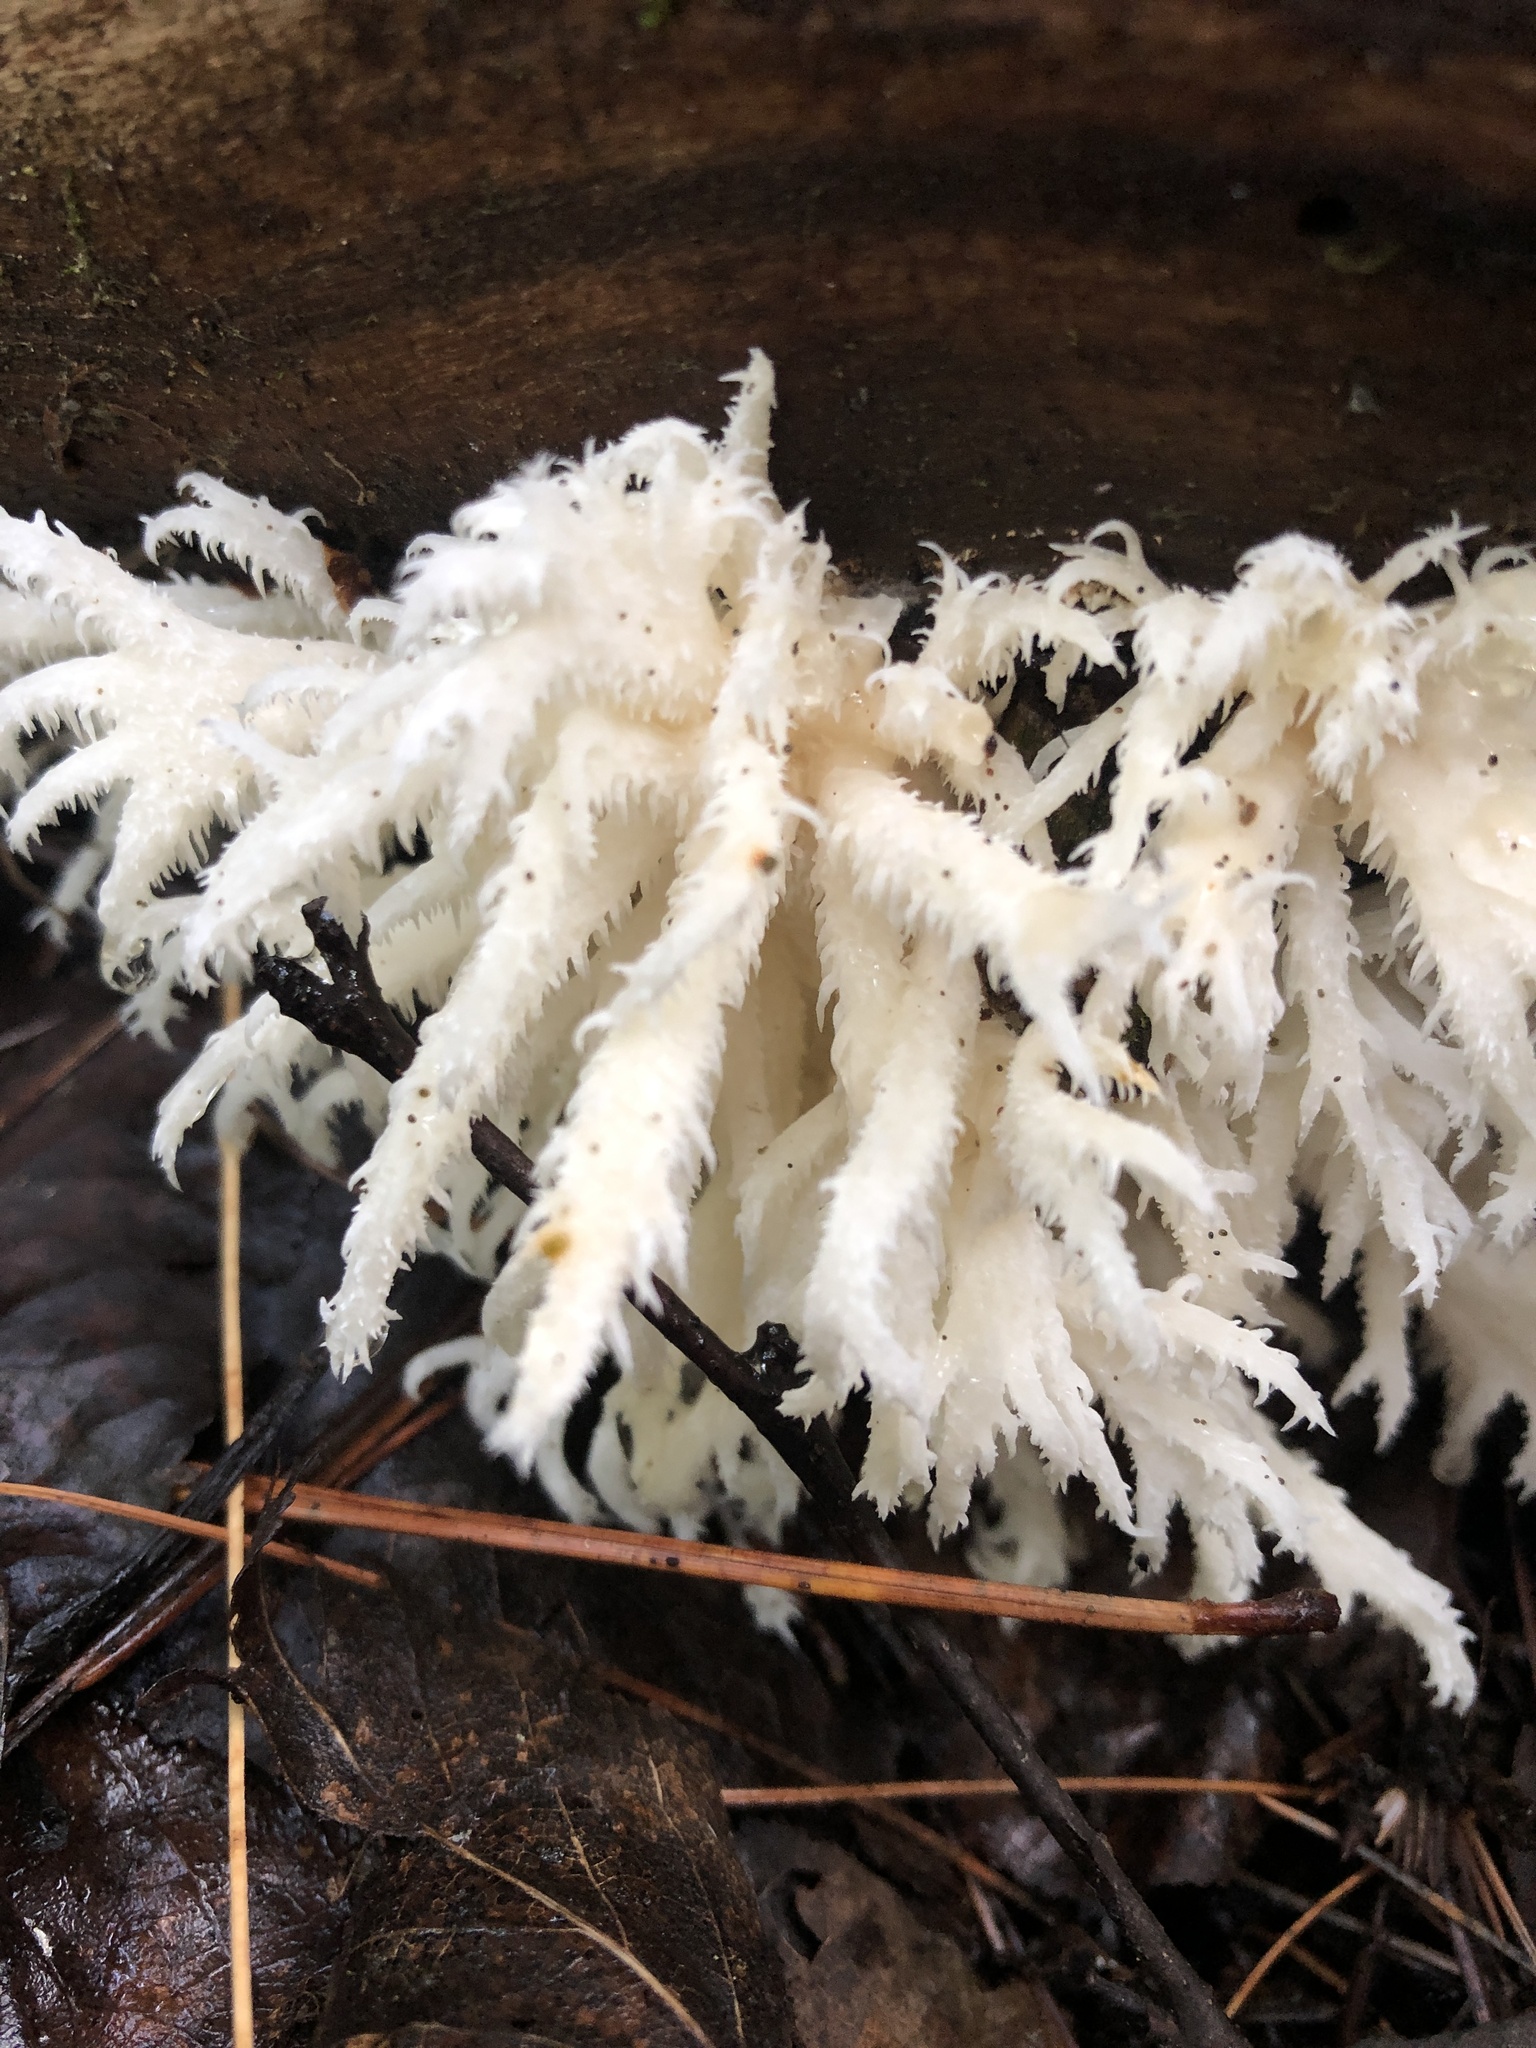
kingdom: Fungi
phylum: Basidiomycota
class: Agaricomycetes
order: Russulales
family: Hericiaceae
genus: Hericium
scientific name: Hericium coralloides
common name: Coral tooth
